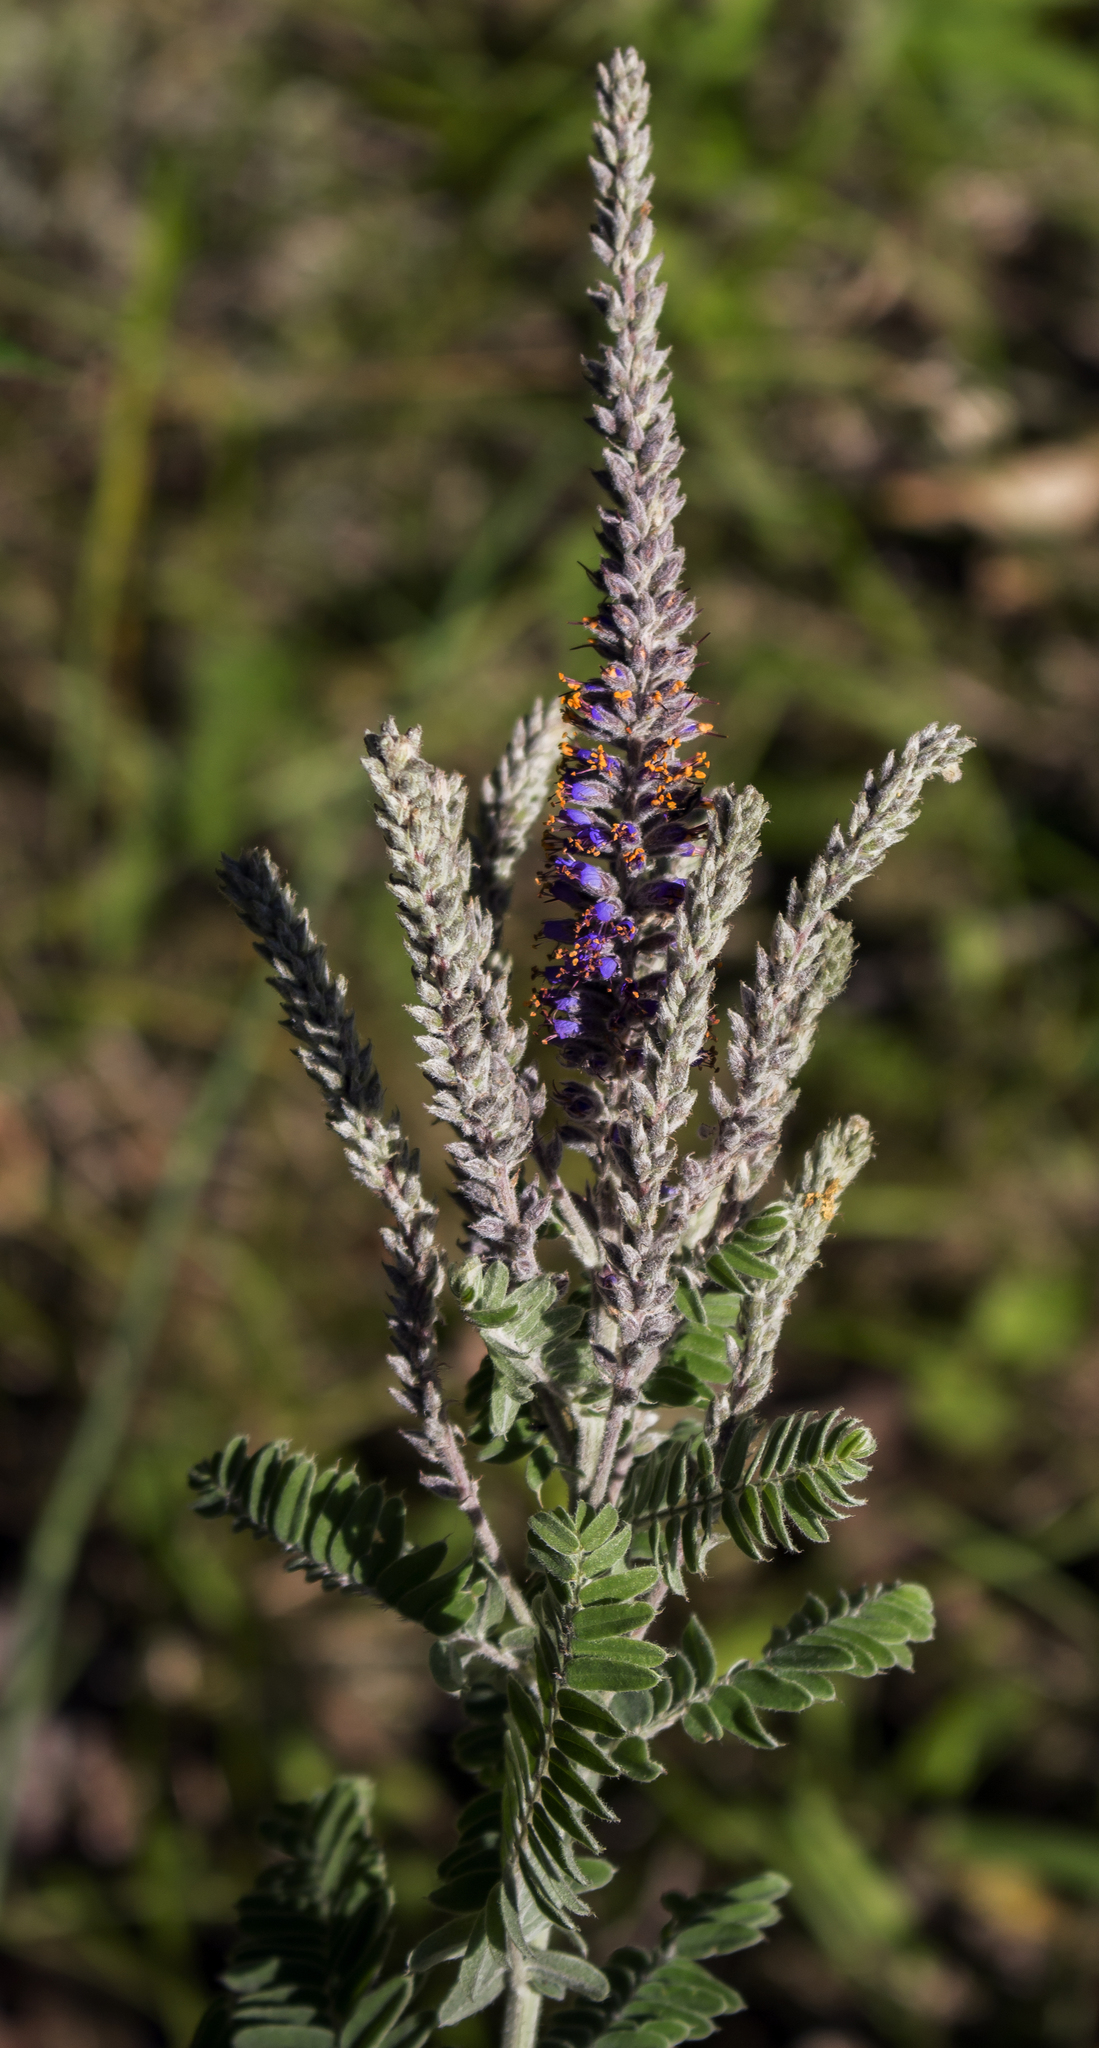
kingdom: Plantae
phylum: Tracheophyta
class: Magnoliopsida
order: Fabales
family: Fabaceae
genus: Amorpha
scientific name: Amorpha canescens
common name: Leadplant
